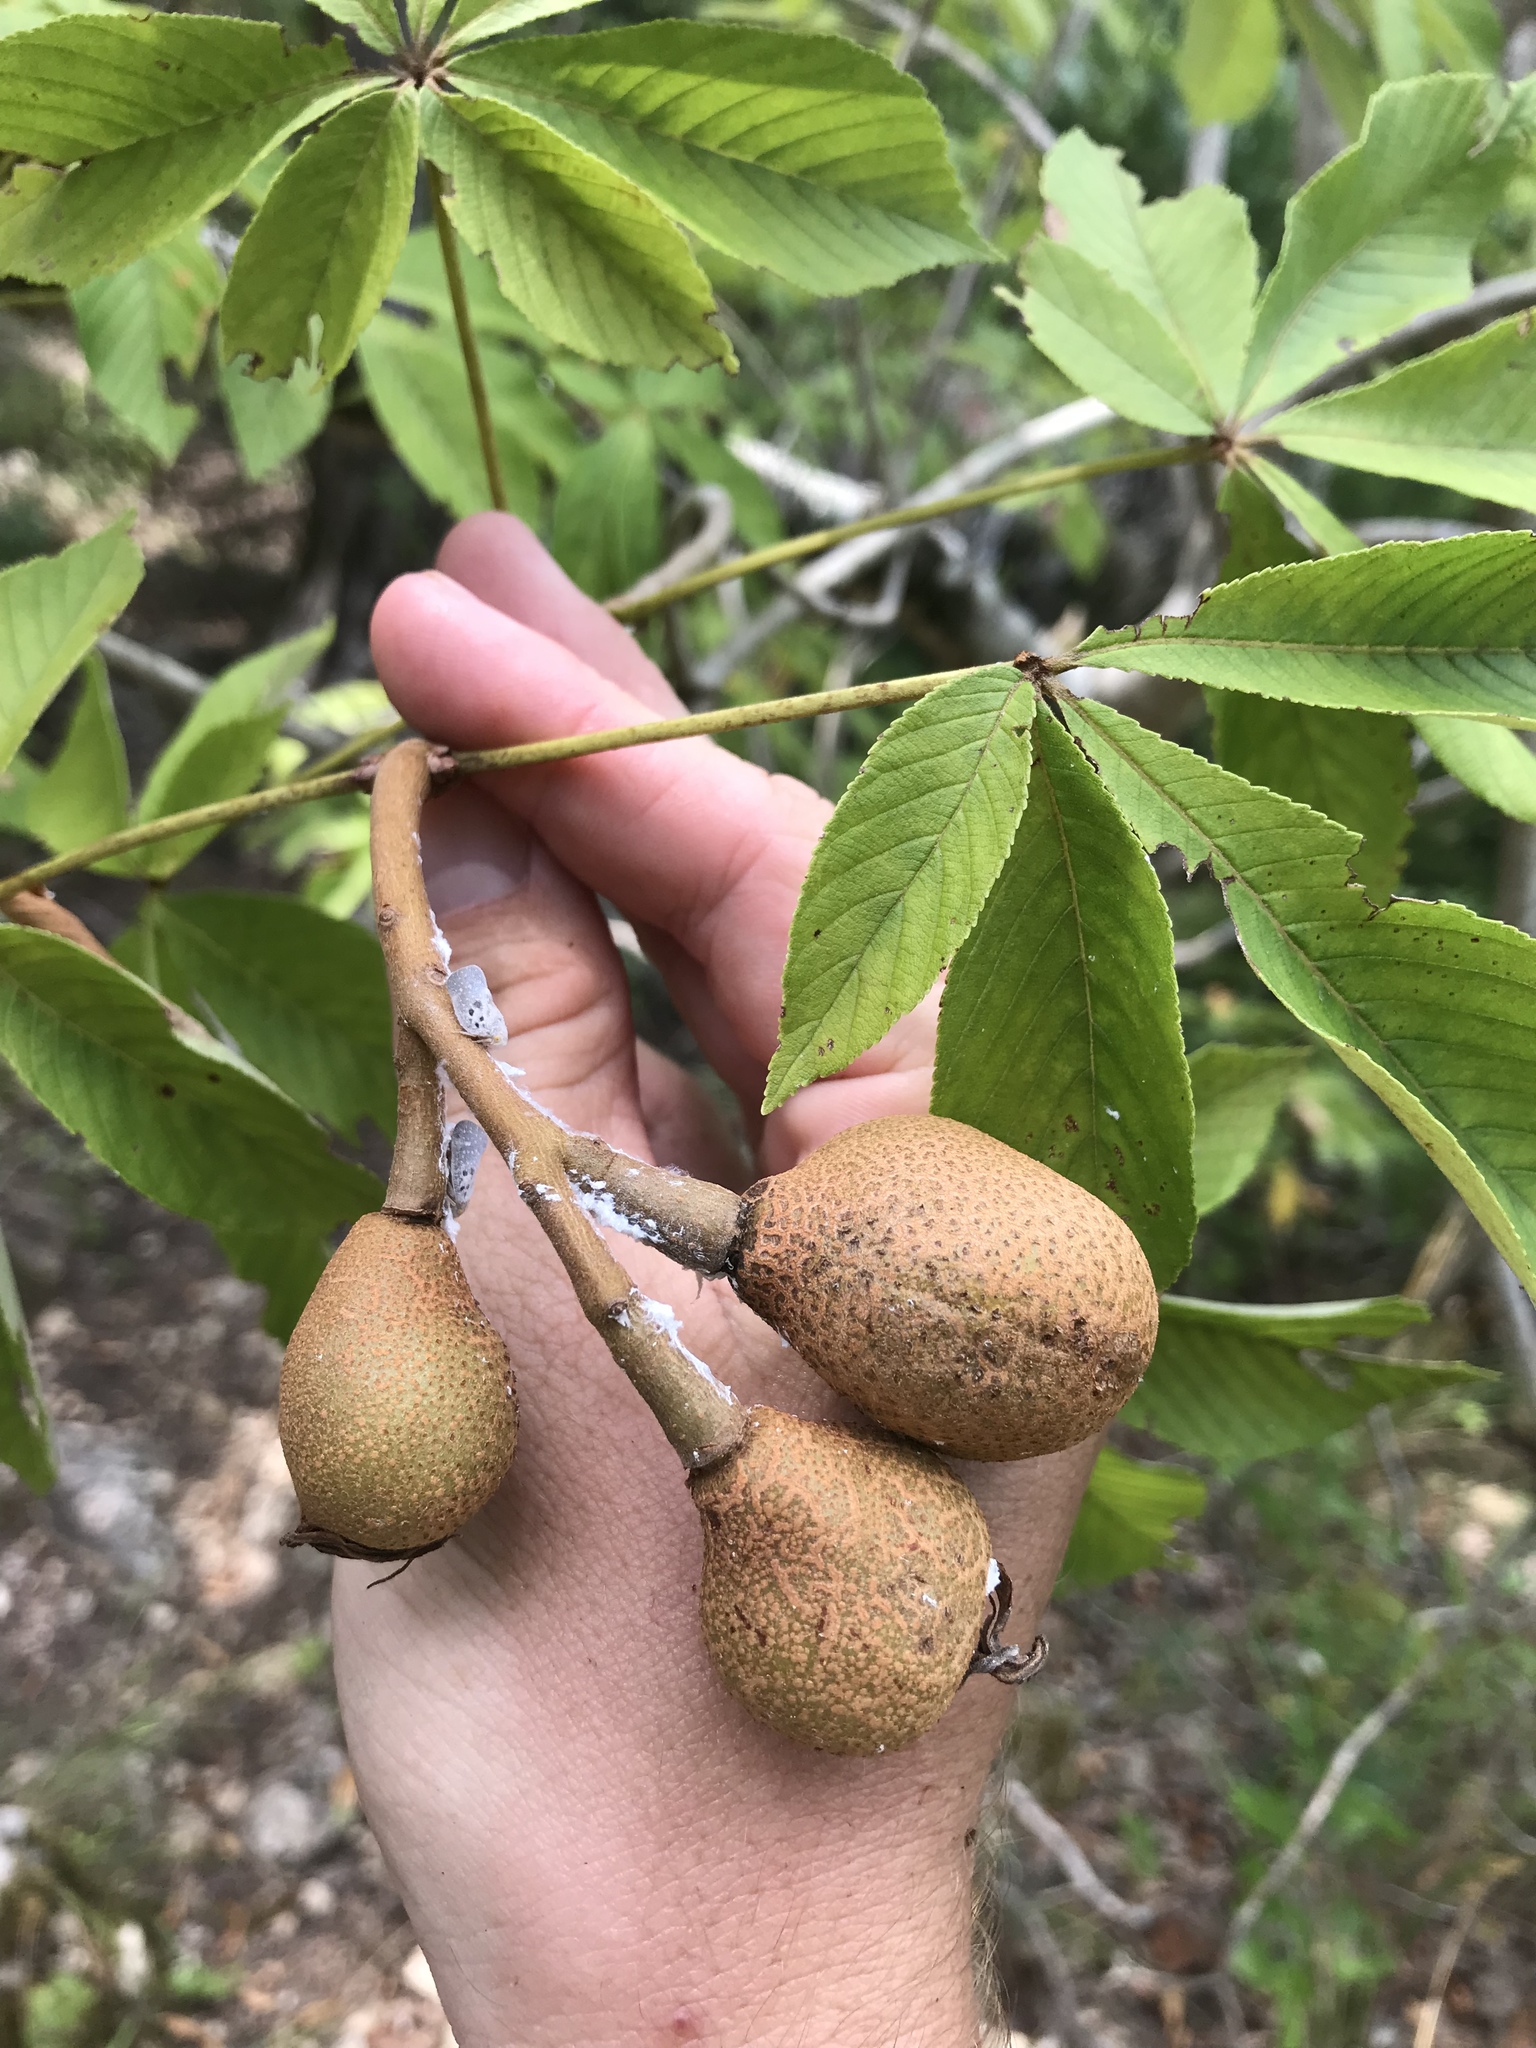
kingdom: Plantae
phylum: Tracheophyta
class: Magnoliopsida
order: Sapindales
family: Sapindaceae
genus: Aesculus
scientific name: Aesculus pavia
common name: Red buckeye
